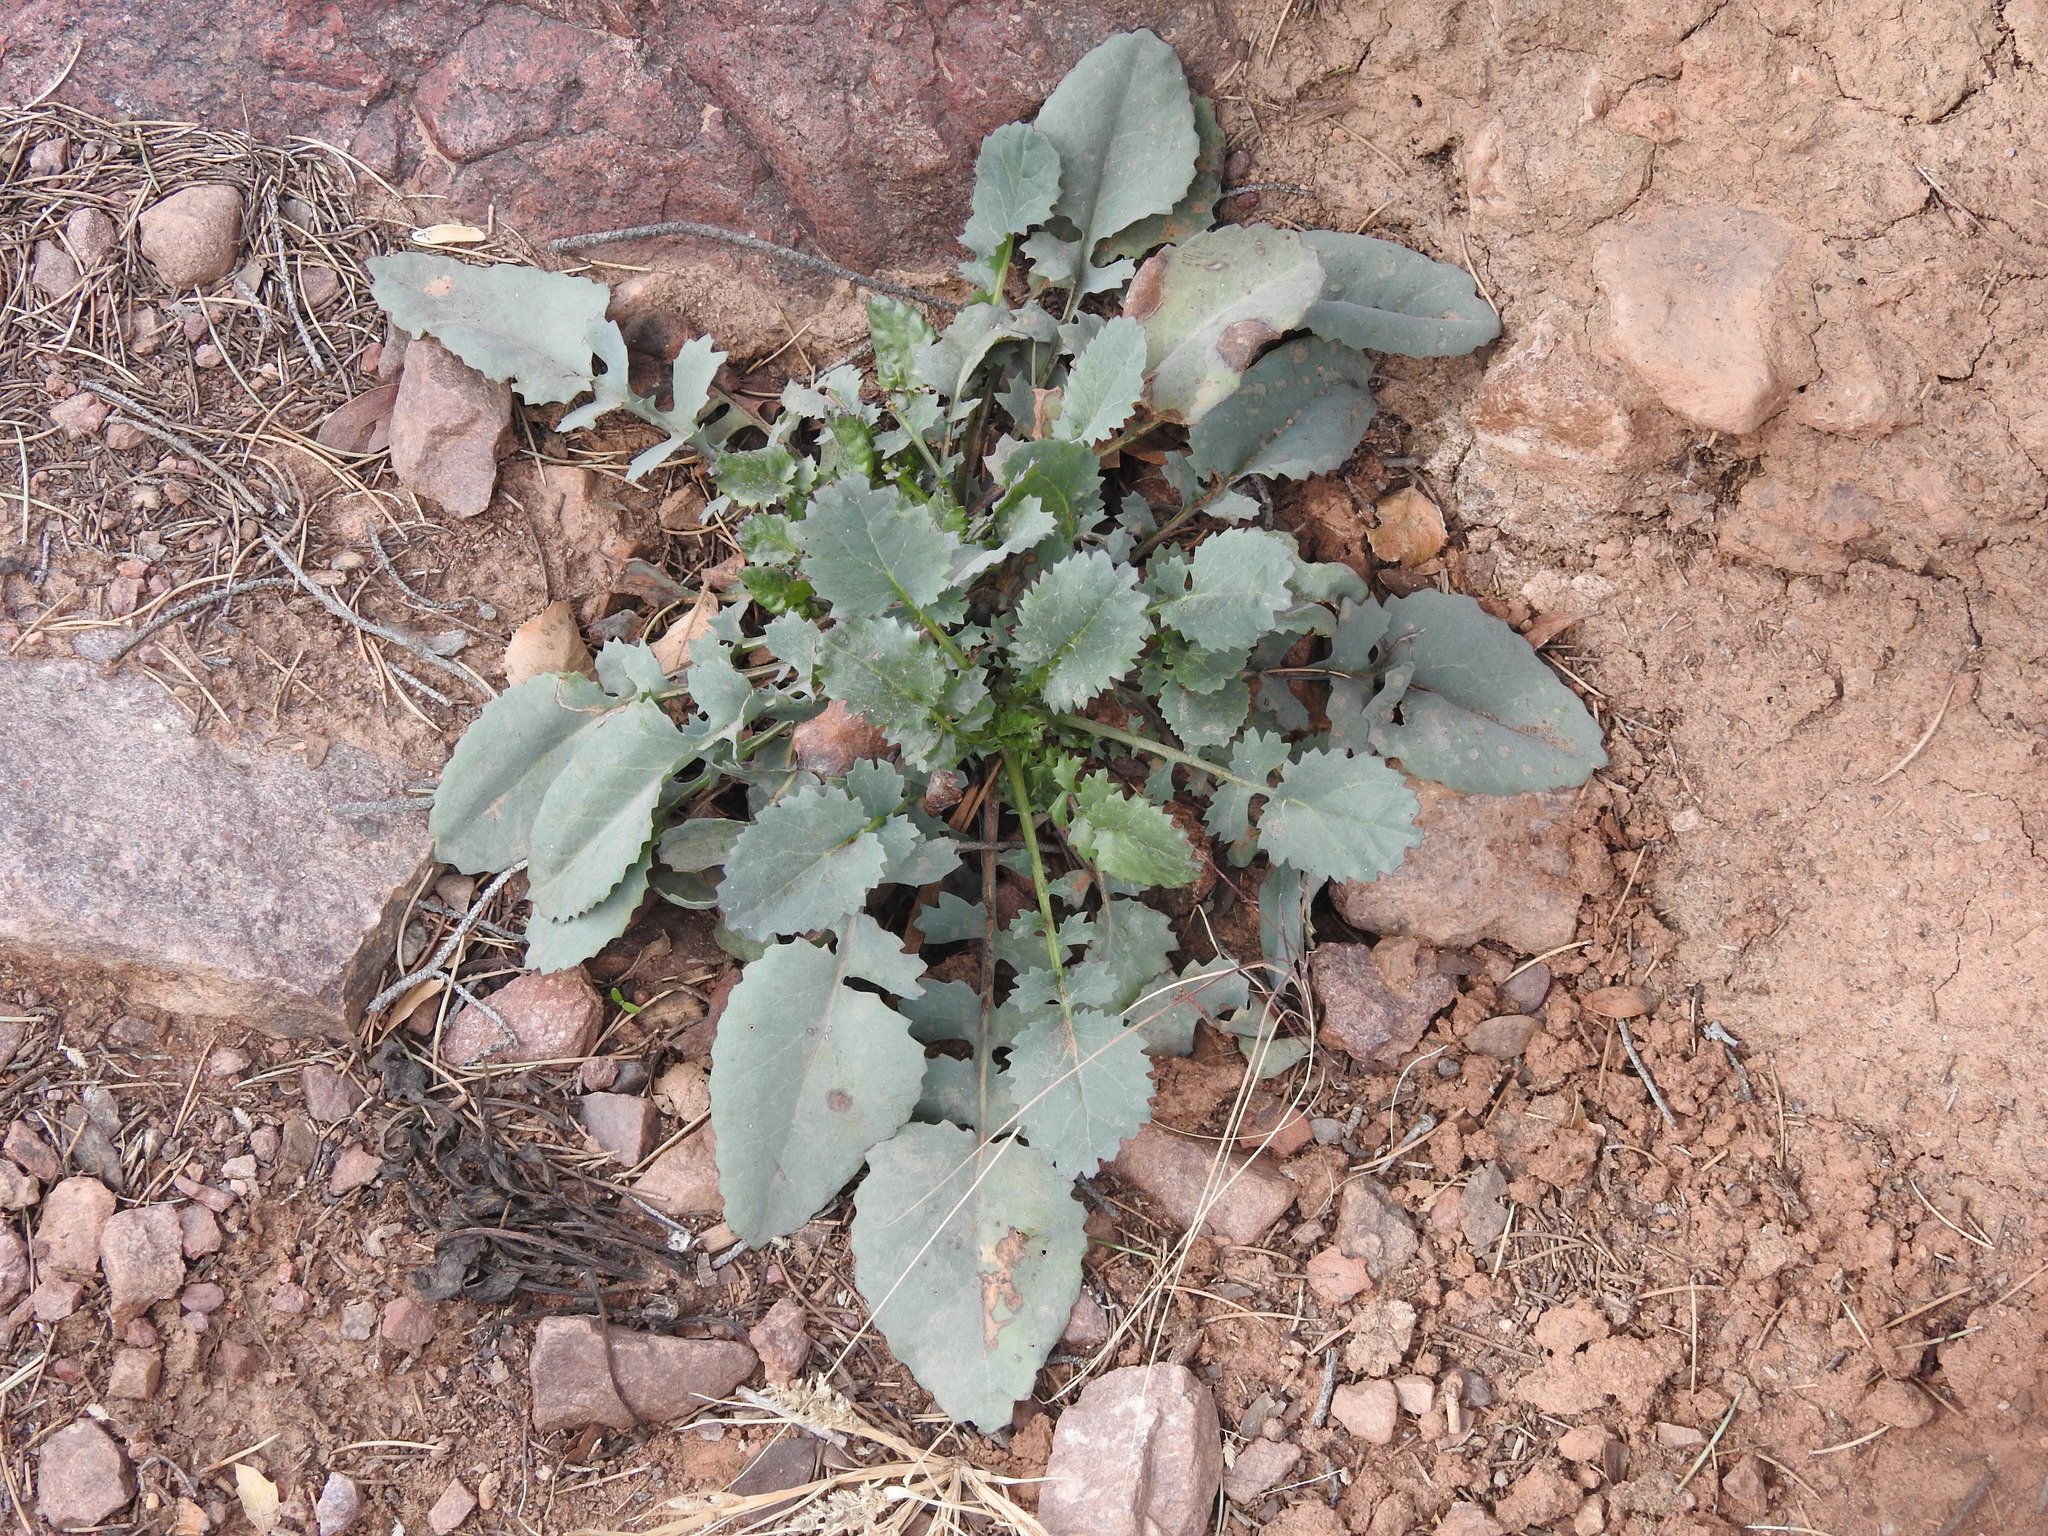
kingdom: Plantae
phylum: Tracheophyta
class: Magnoliopsida
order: Asterales
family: Asteraceae
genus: Packera
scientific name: Packera
